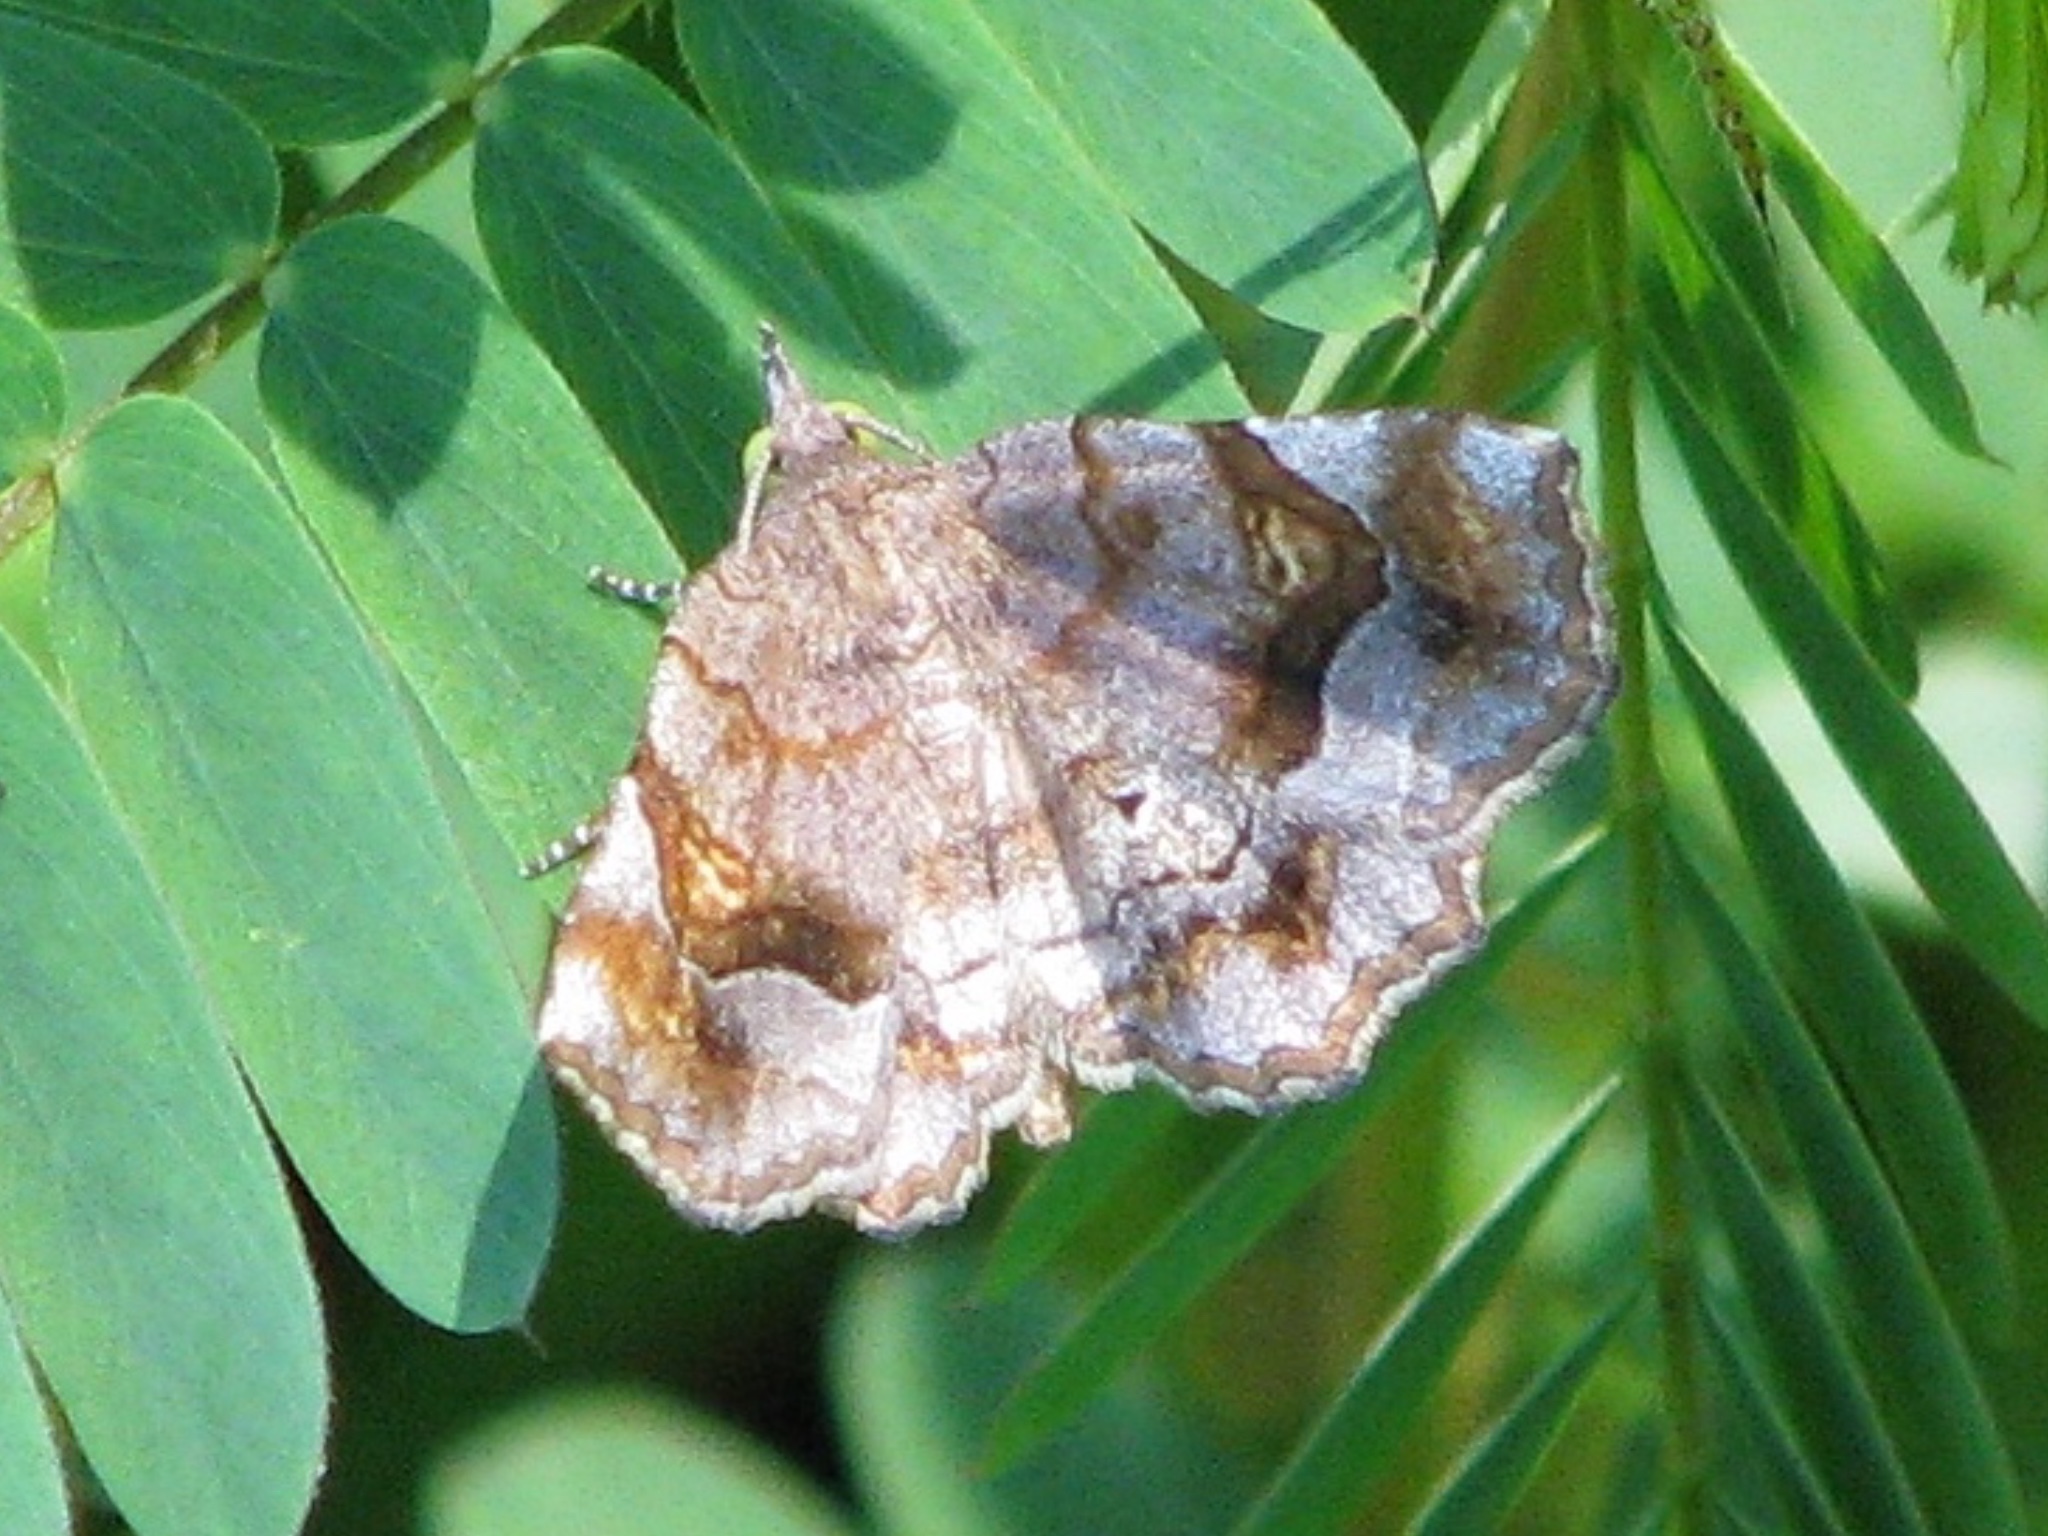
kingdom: Animalia
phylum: Arthropoda
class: Insecta
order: Lepidoptera
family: Erebidae
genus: Pangrapta
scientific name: Pangrapta decoralis
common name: Decorated owlet
